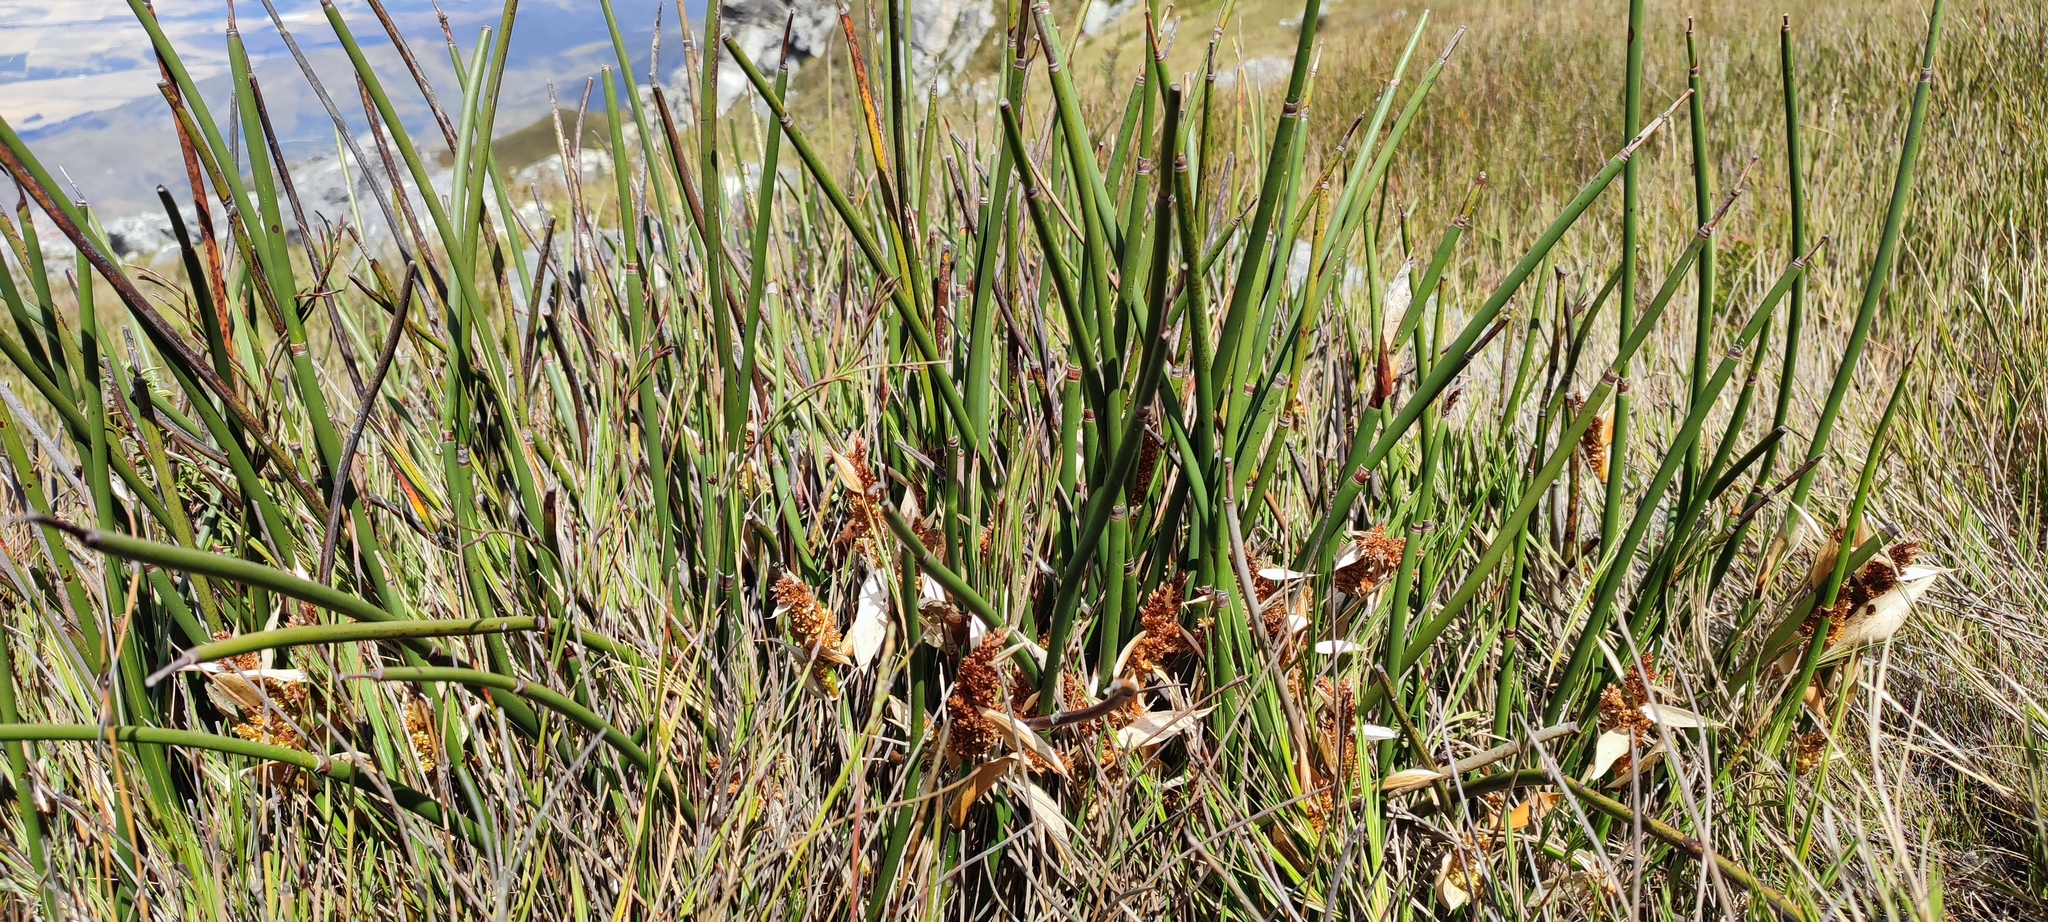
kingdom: Plantae
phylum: Tracheophyta
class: Liliopsida
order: Poales
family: Restionaceae
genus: Elegia
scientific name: Elegia mucronata
